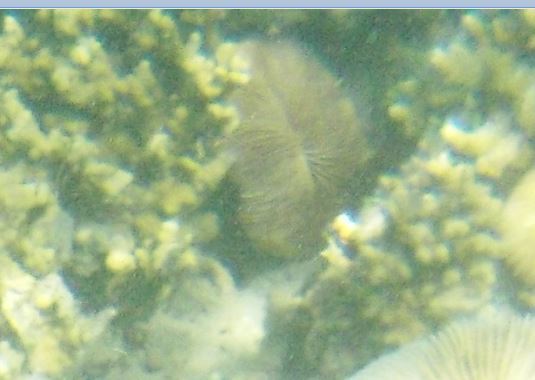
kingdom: Animalia
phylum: Cnidaria
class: Anthozoa
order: Scleractinia
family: Fungiidae
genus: Pleuractis
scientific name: Pleuractis paumotensis
